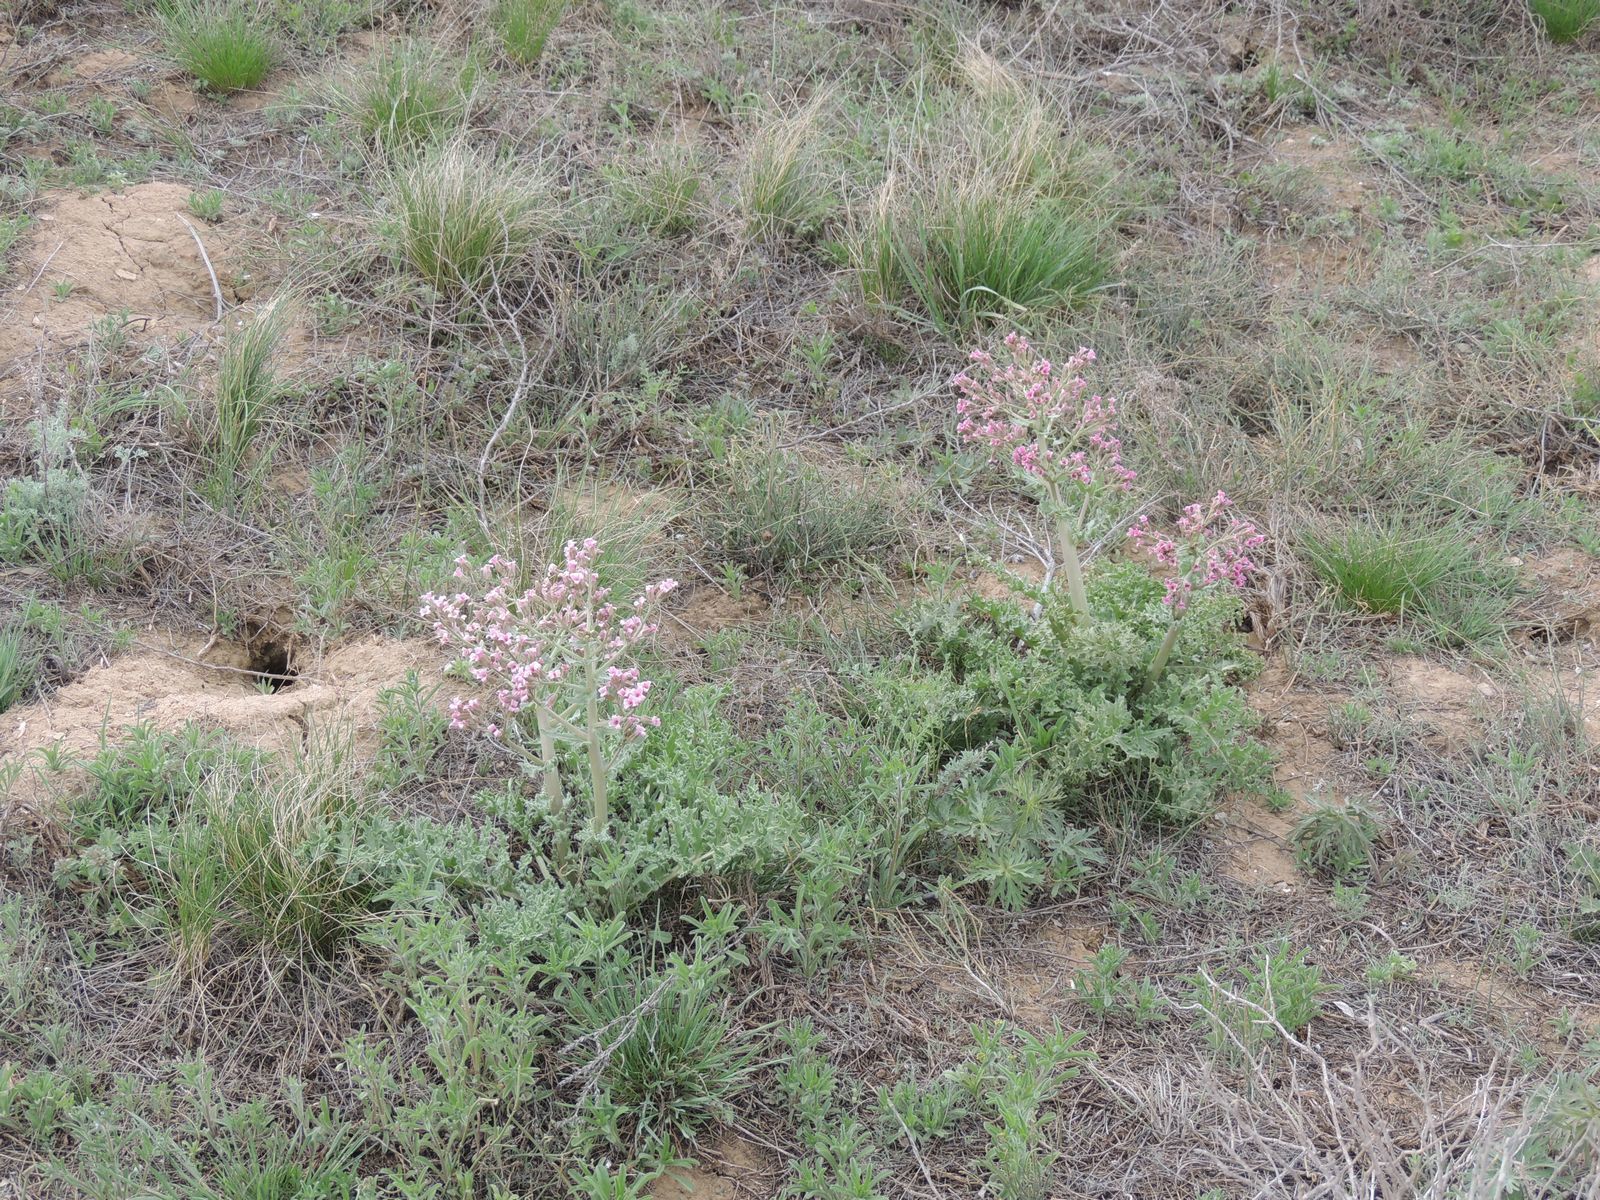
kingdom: Plantae
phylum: Tracheophyta
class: Magnoliopsida
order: Brassicales
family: Brassicaceae
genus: Megacarpaea
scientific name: Megacarpaea megalocarpa
